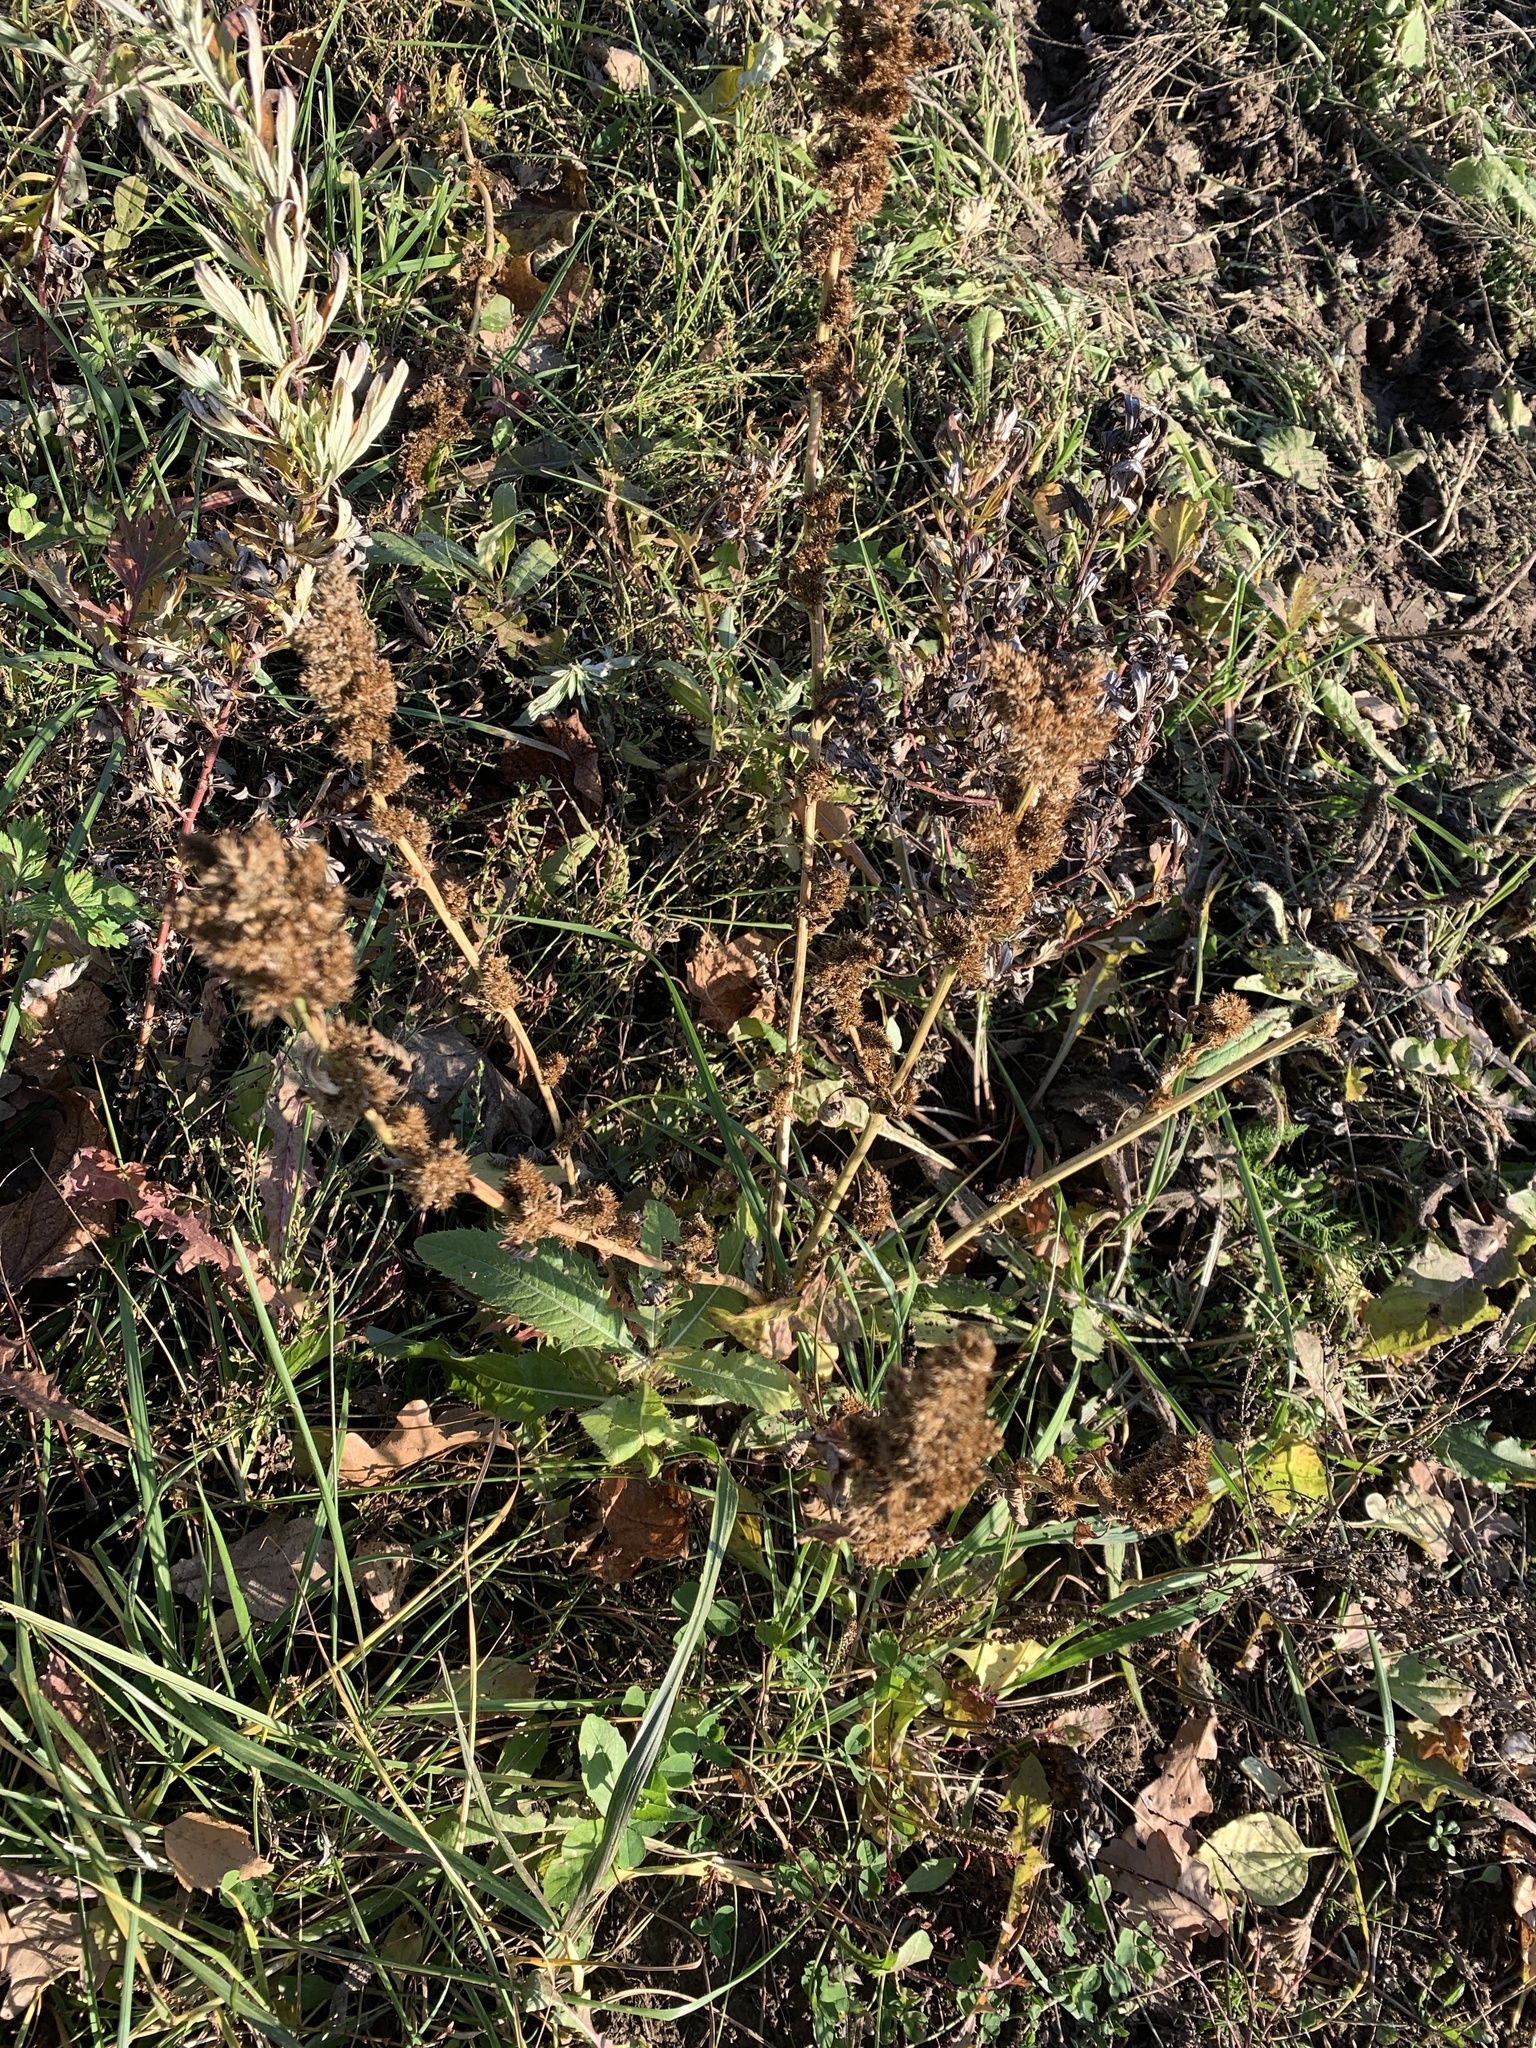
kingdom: Plantae
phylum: Tracheophyta
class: Magnoliopsida
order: Caryophyllales
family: Amaranthaceae
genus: Amaranthus
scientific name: Amaranthus retroflexus
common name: Redroot amaranth
